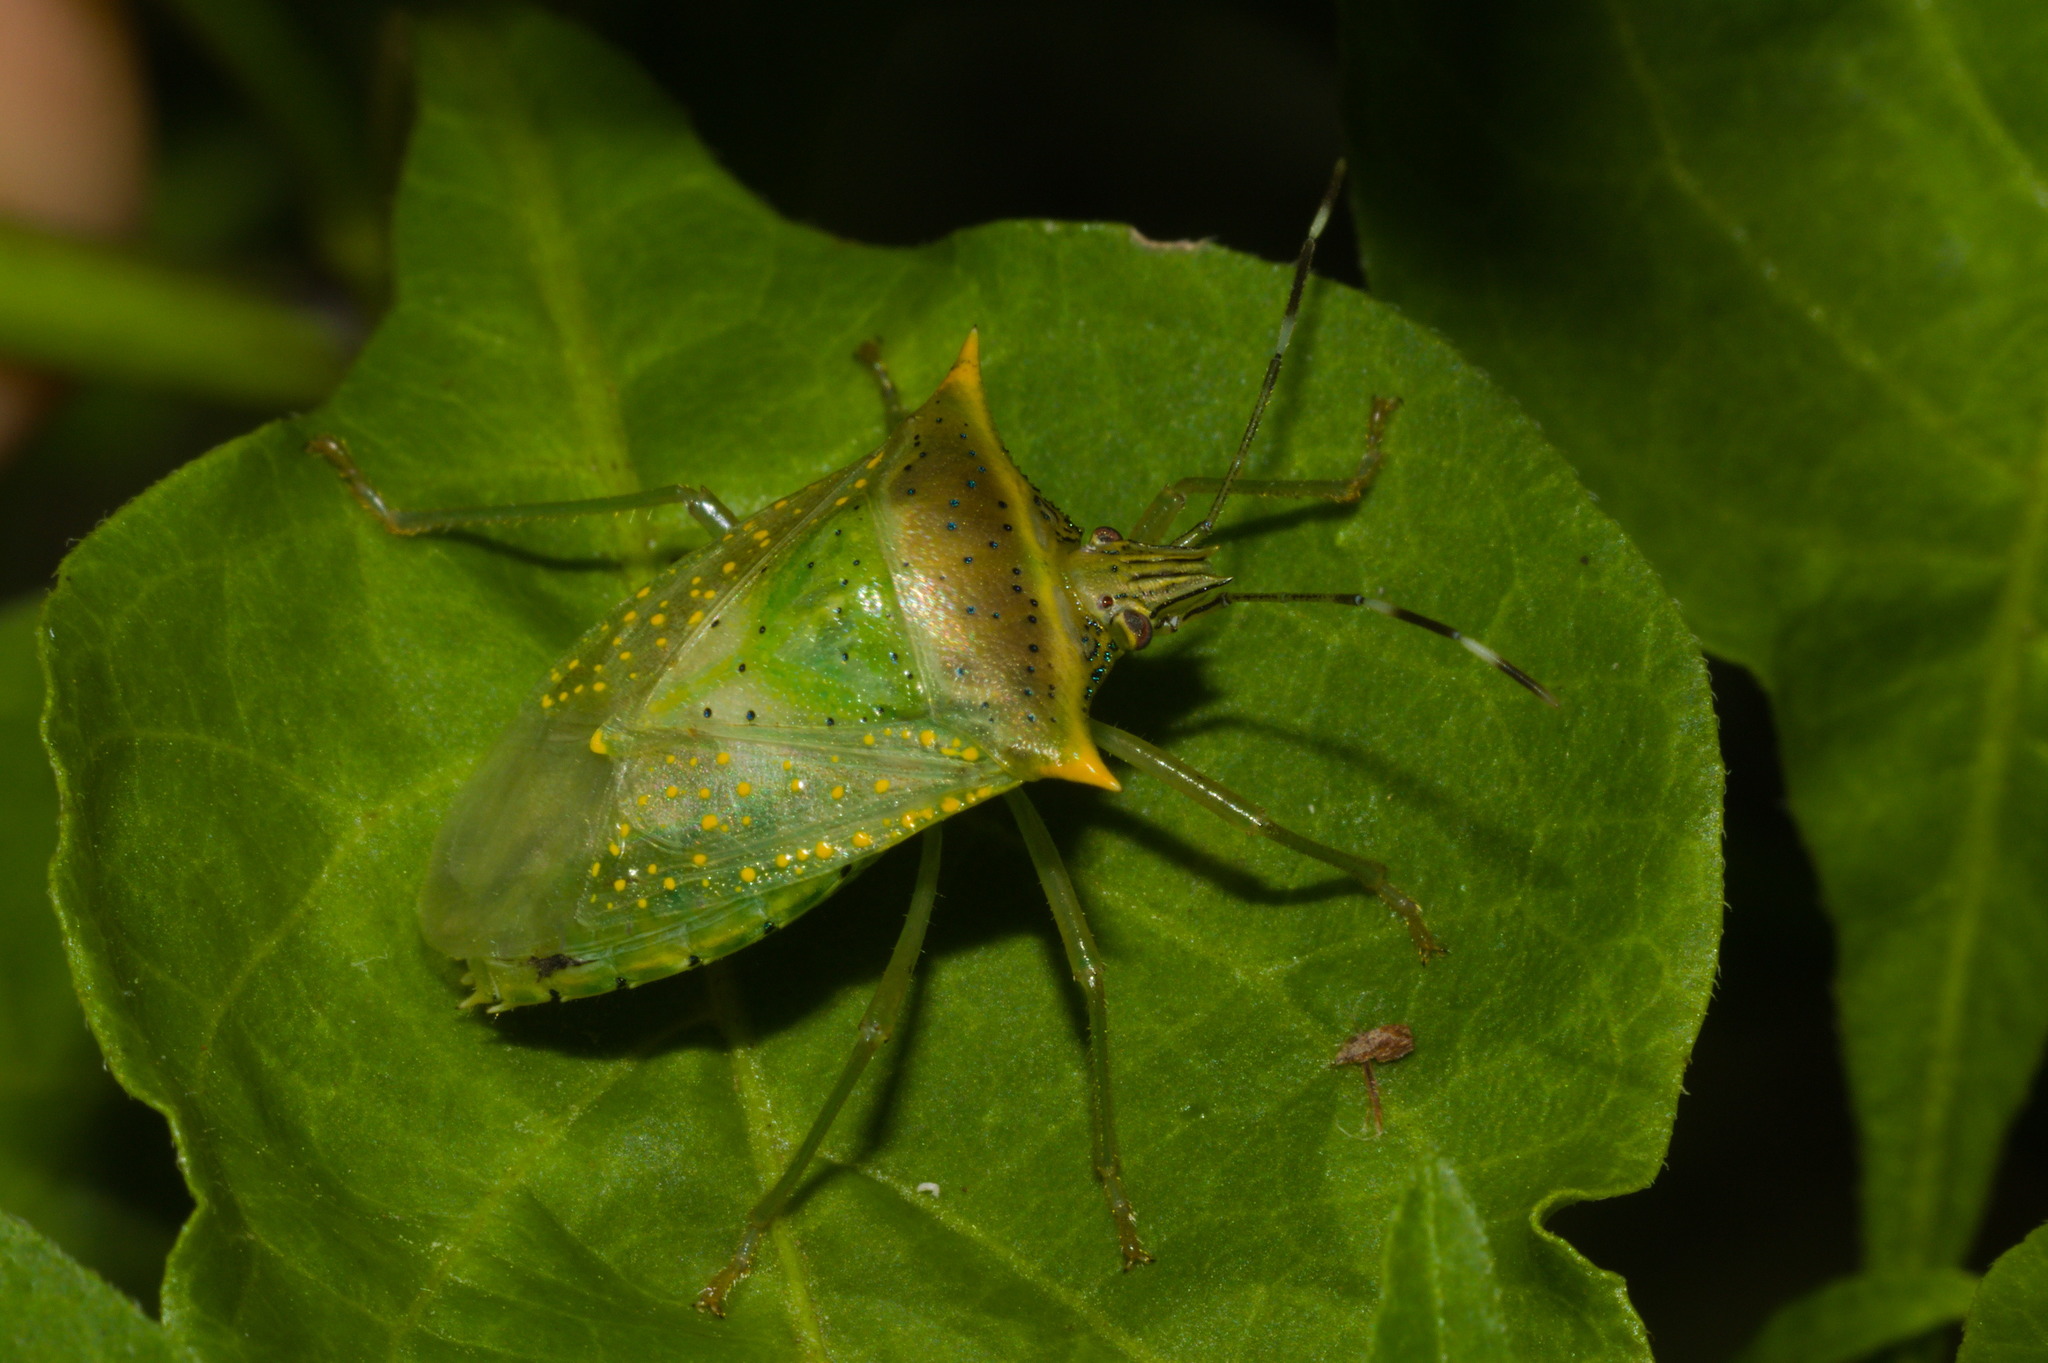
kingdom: Animalia
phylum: Arthropoda
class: Insecta
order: Hemiptera
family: Pentatomidae
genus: Arvelius
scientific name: Arvelius albopunctatus
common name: Tomato stink bug
